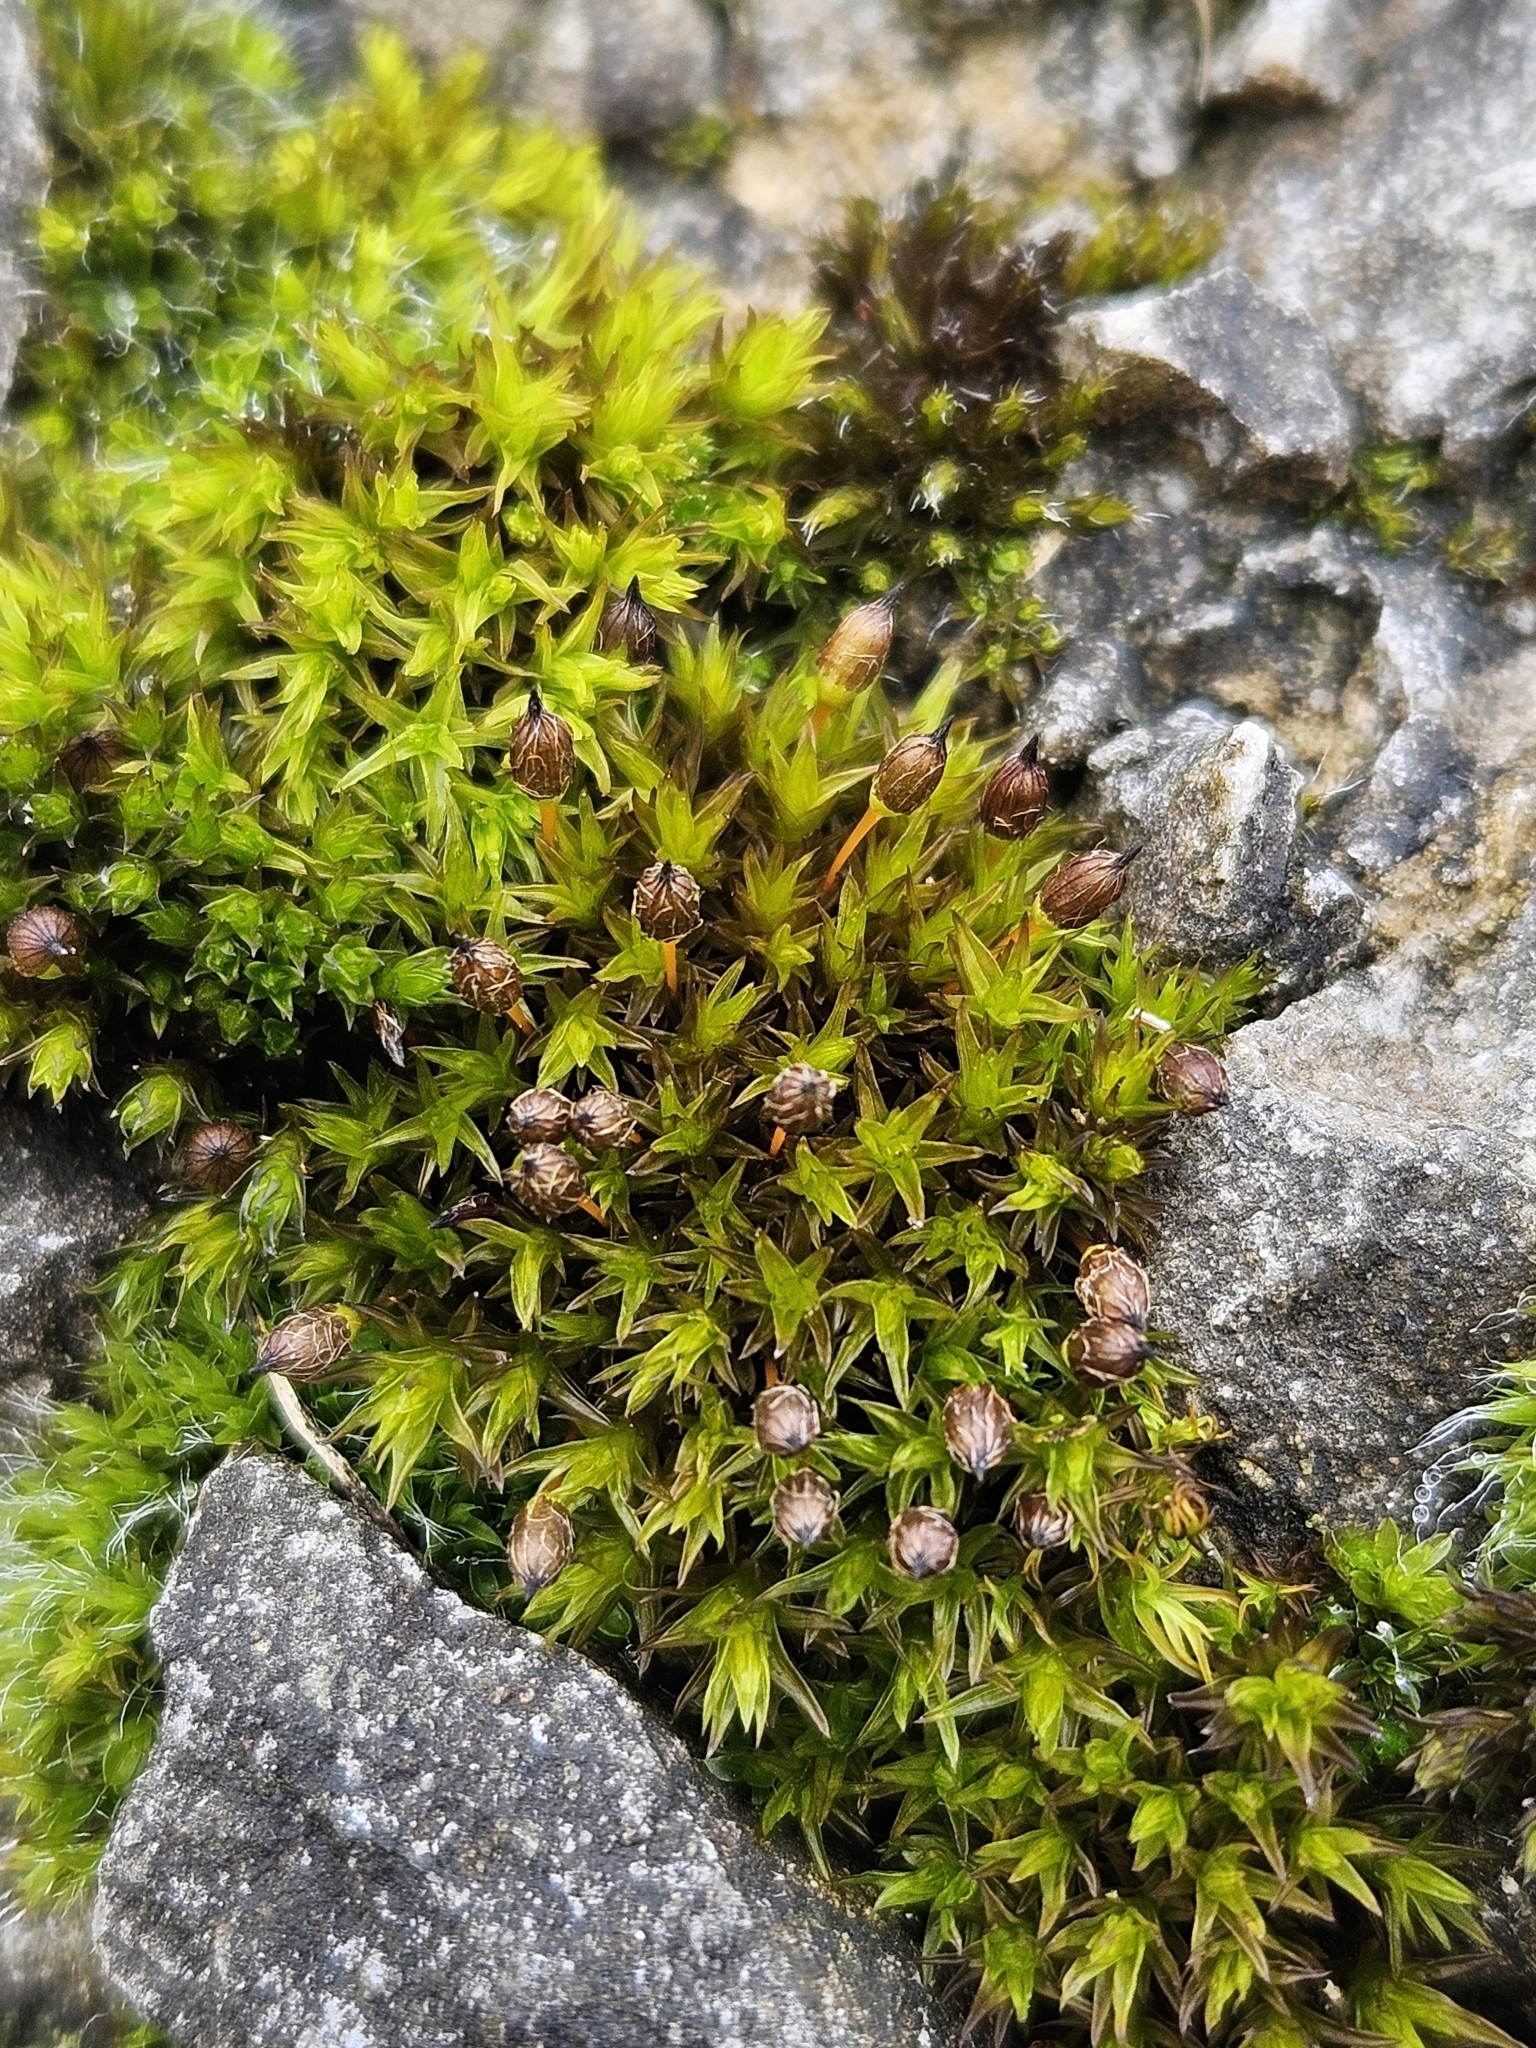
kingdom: Plantae
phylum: Bryophyta
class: Bryopsida
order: Orthotrichales
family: Orthotrichaceae
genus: Orthotrichum
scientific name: Orthotrichum anomalum
